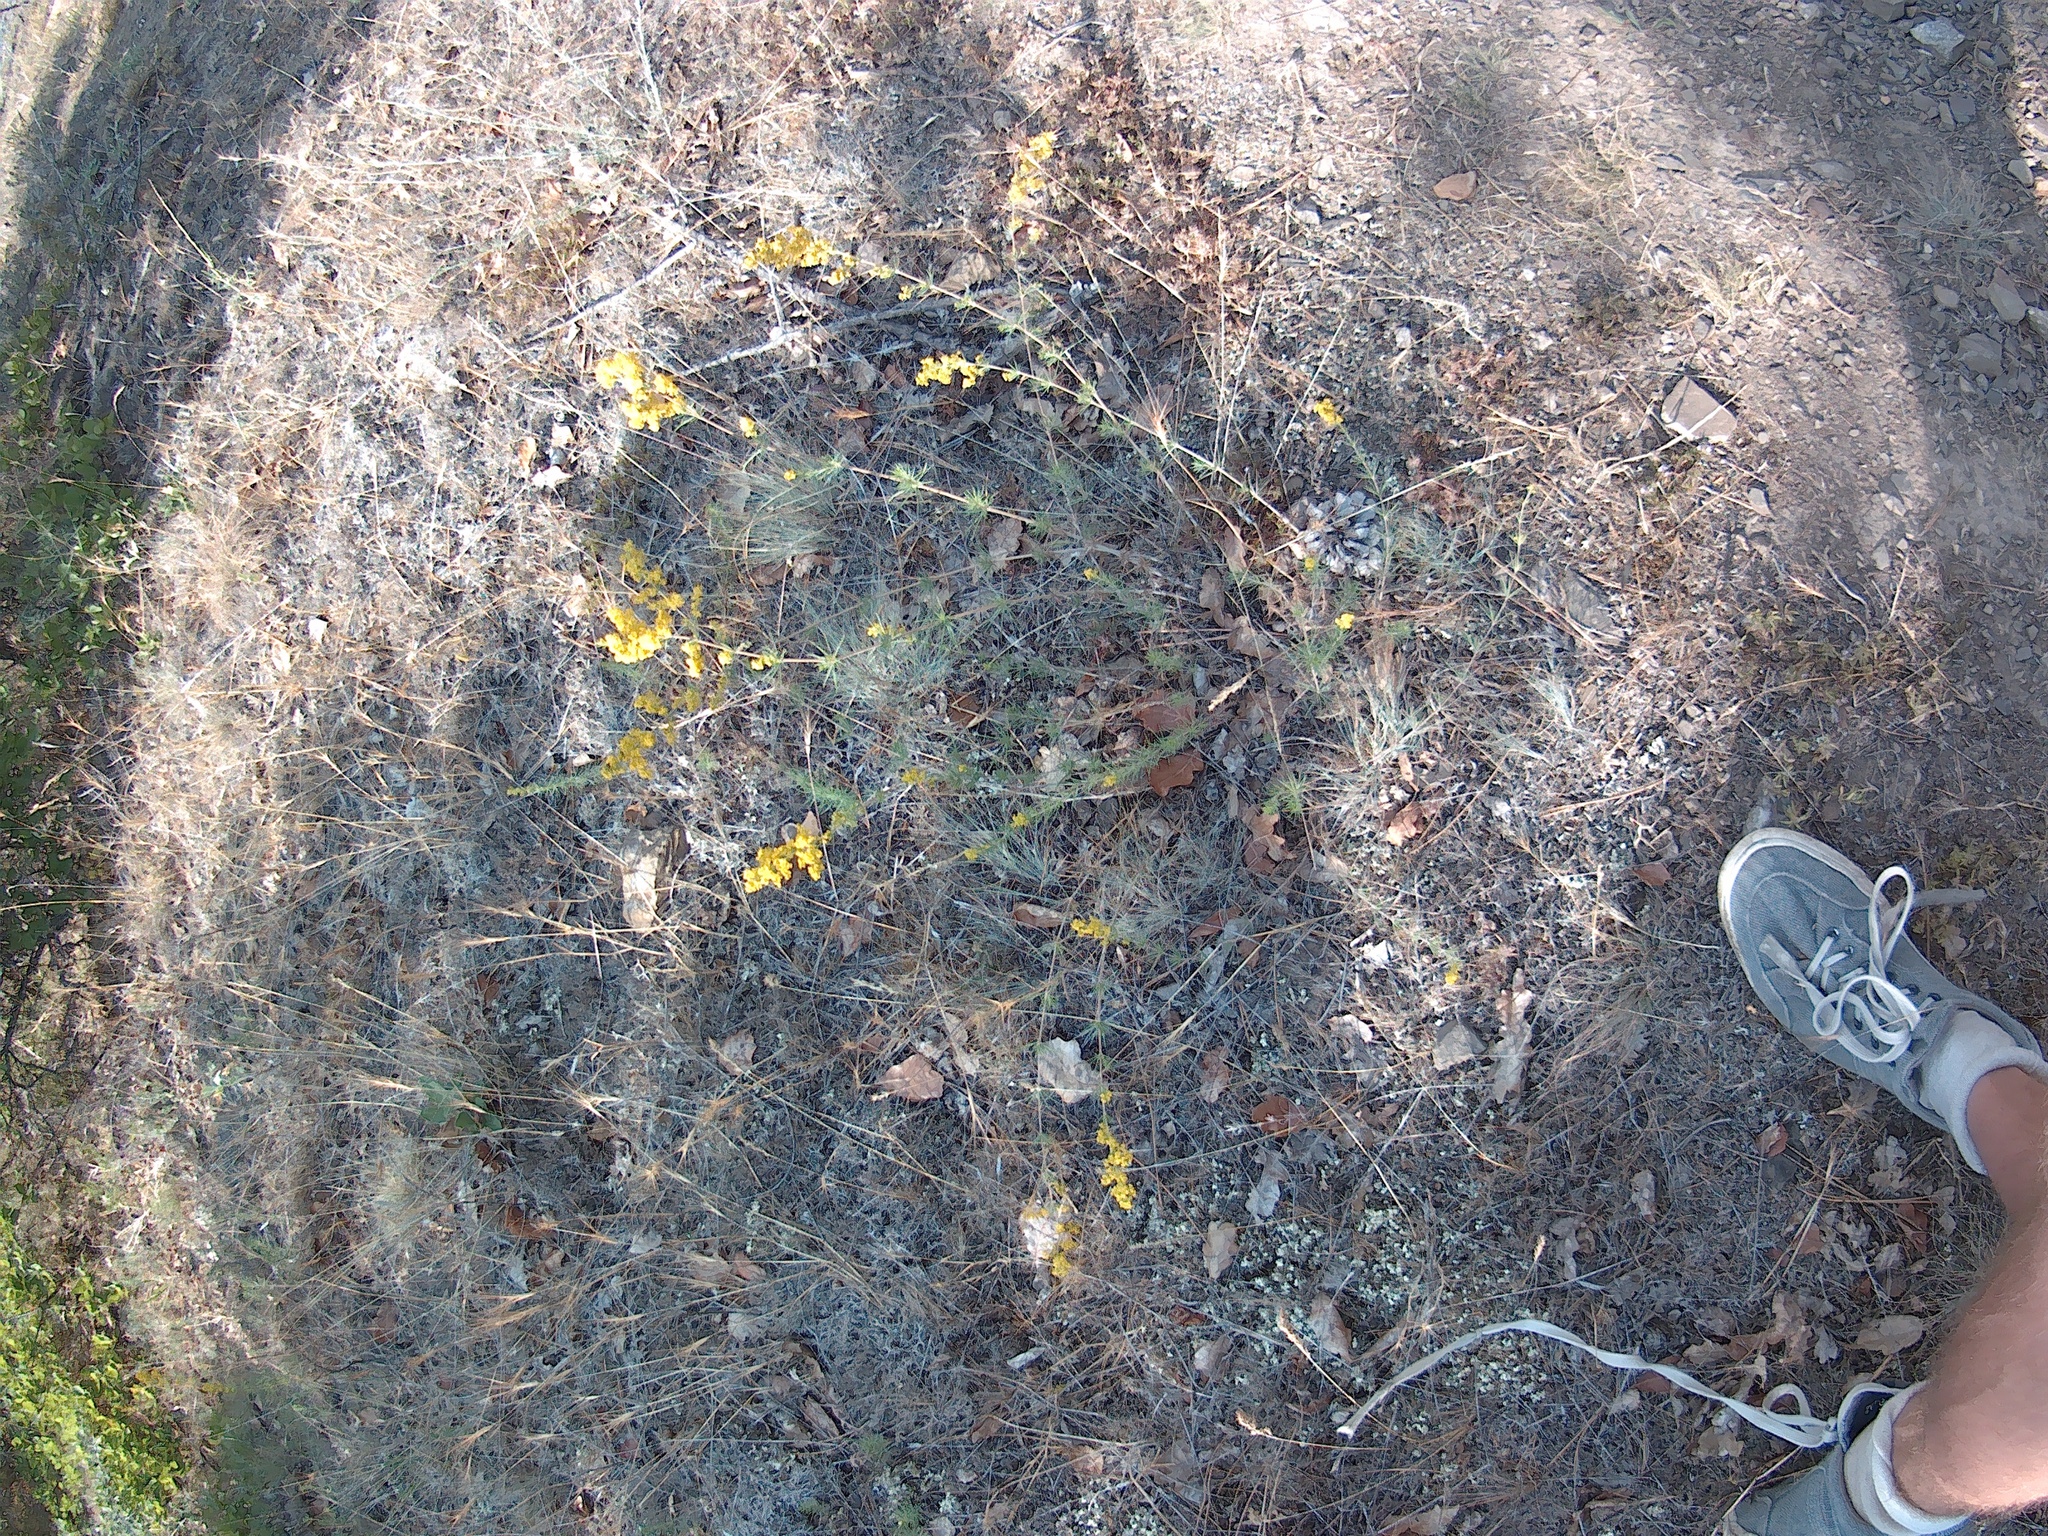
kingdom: Plantae
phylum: Tracheophyta
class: Magnoliopsida
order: Gentianales
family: Rubiaceae
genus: Galium
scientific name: Galium verum
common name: Lady's bedstraw
